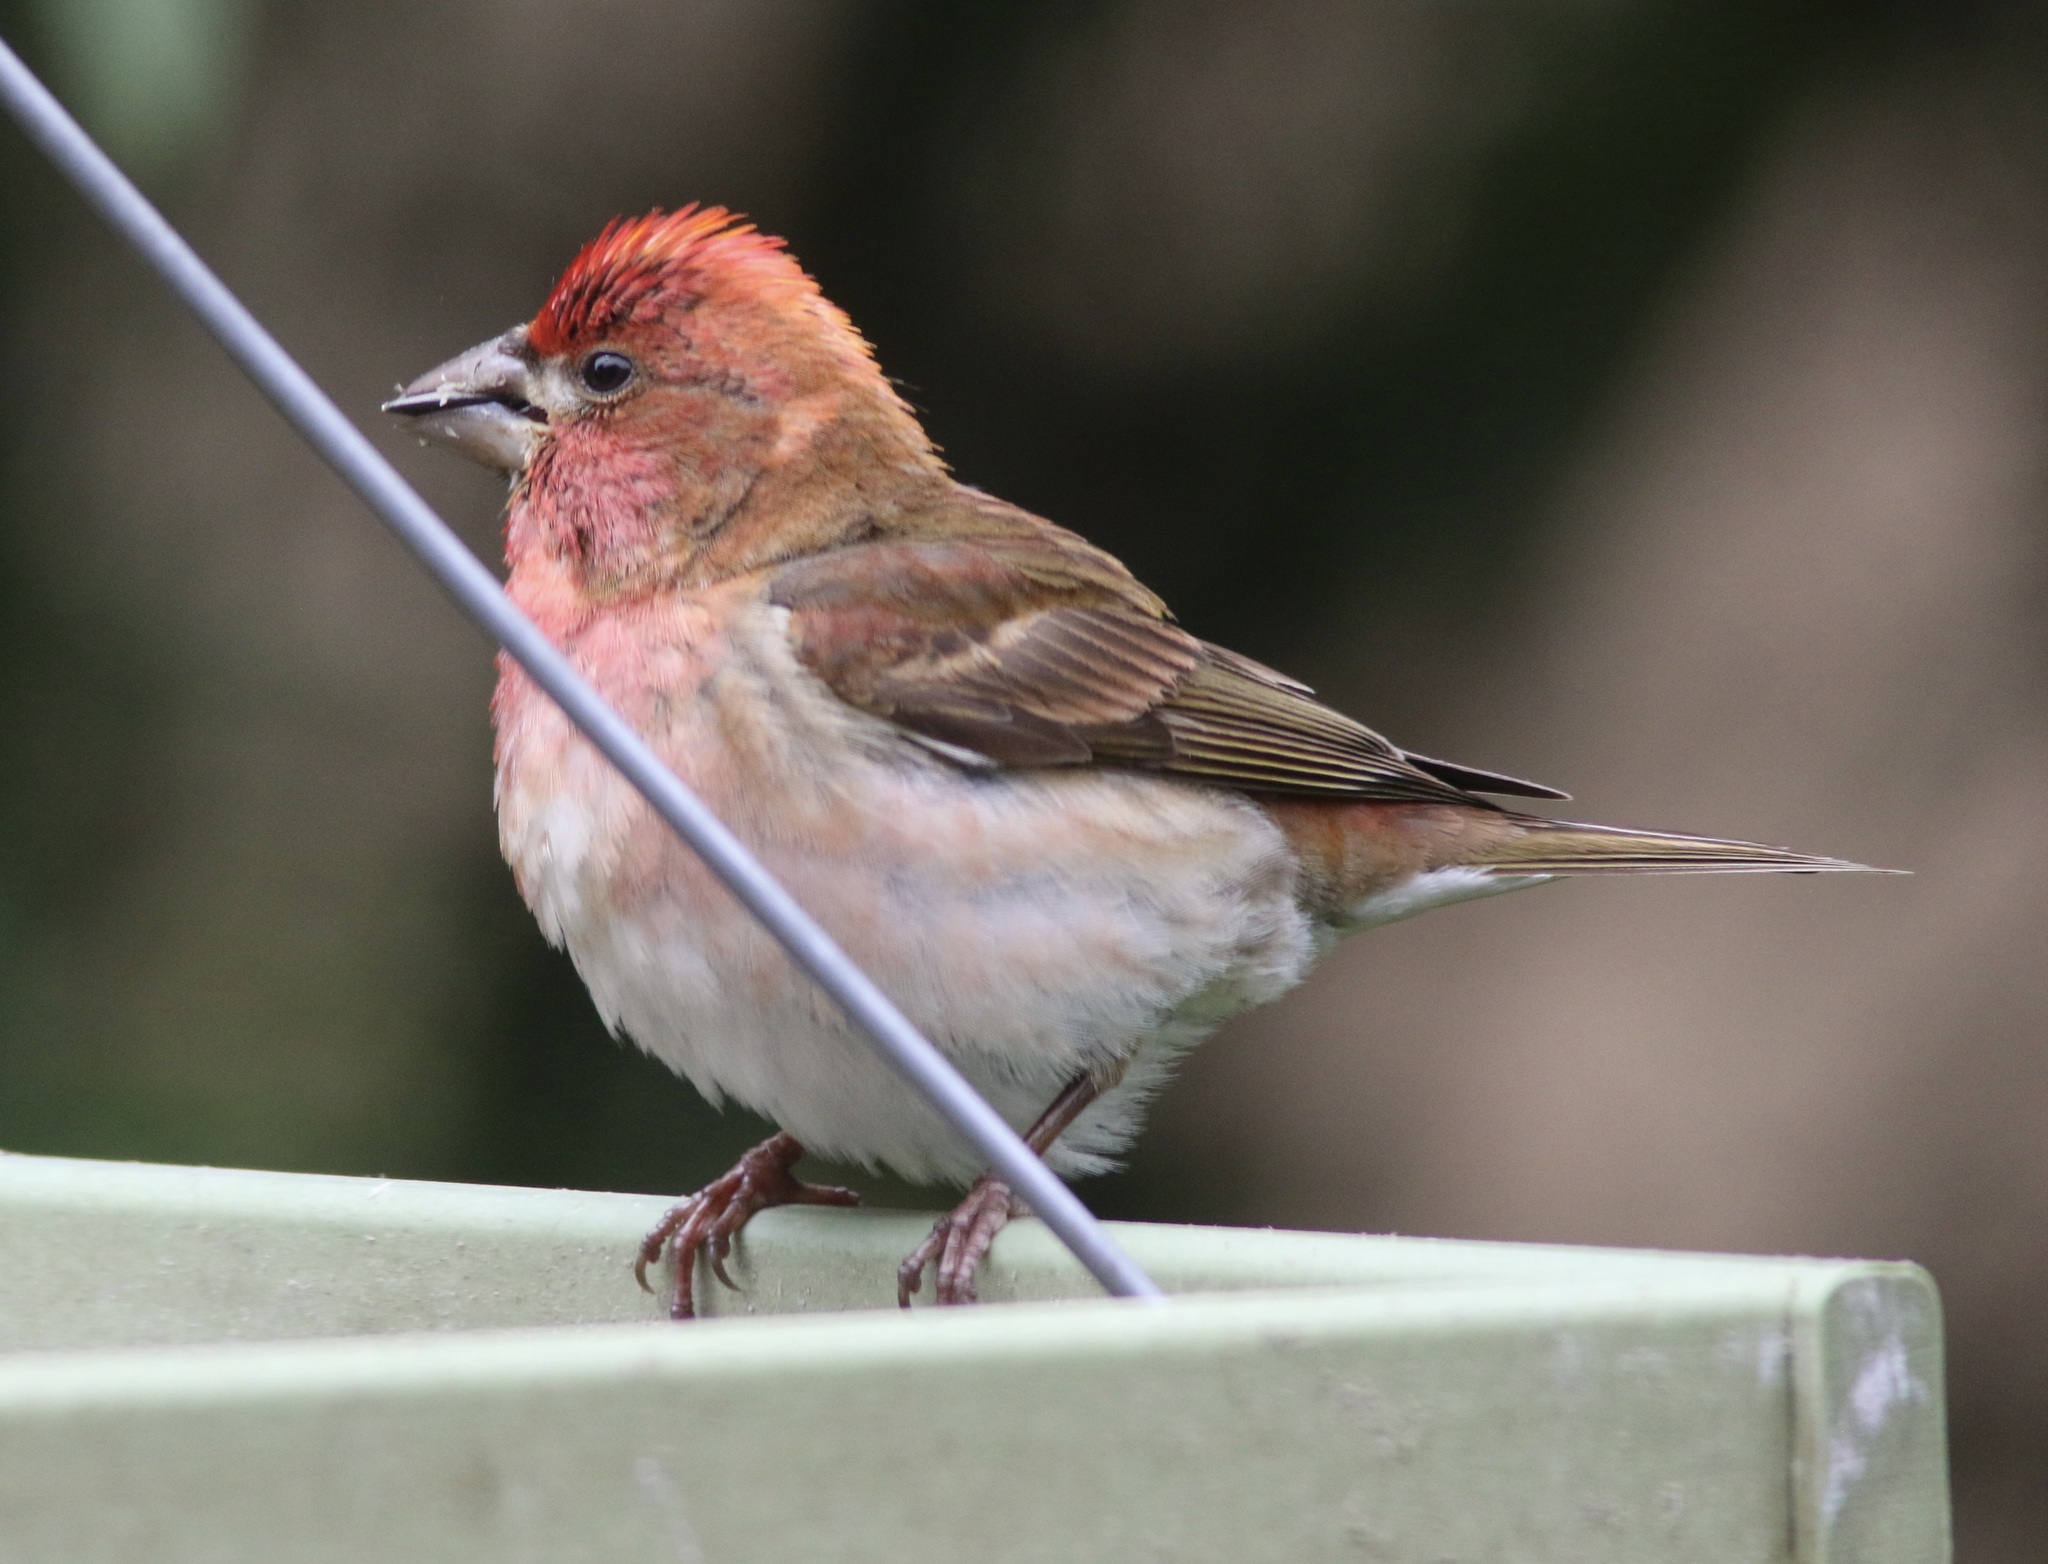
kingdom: Animalia
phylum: Chordata
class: Aves
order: Passeriformes
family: Fringillidae
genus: Haemorhous
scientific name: Haemorhous purpureus
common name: Purple finch
